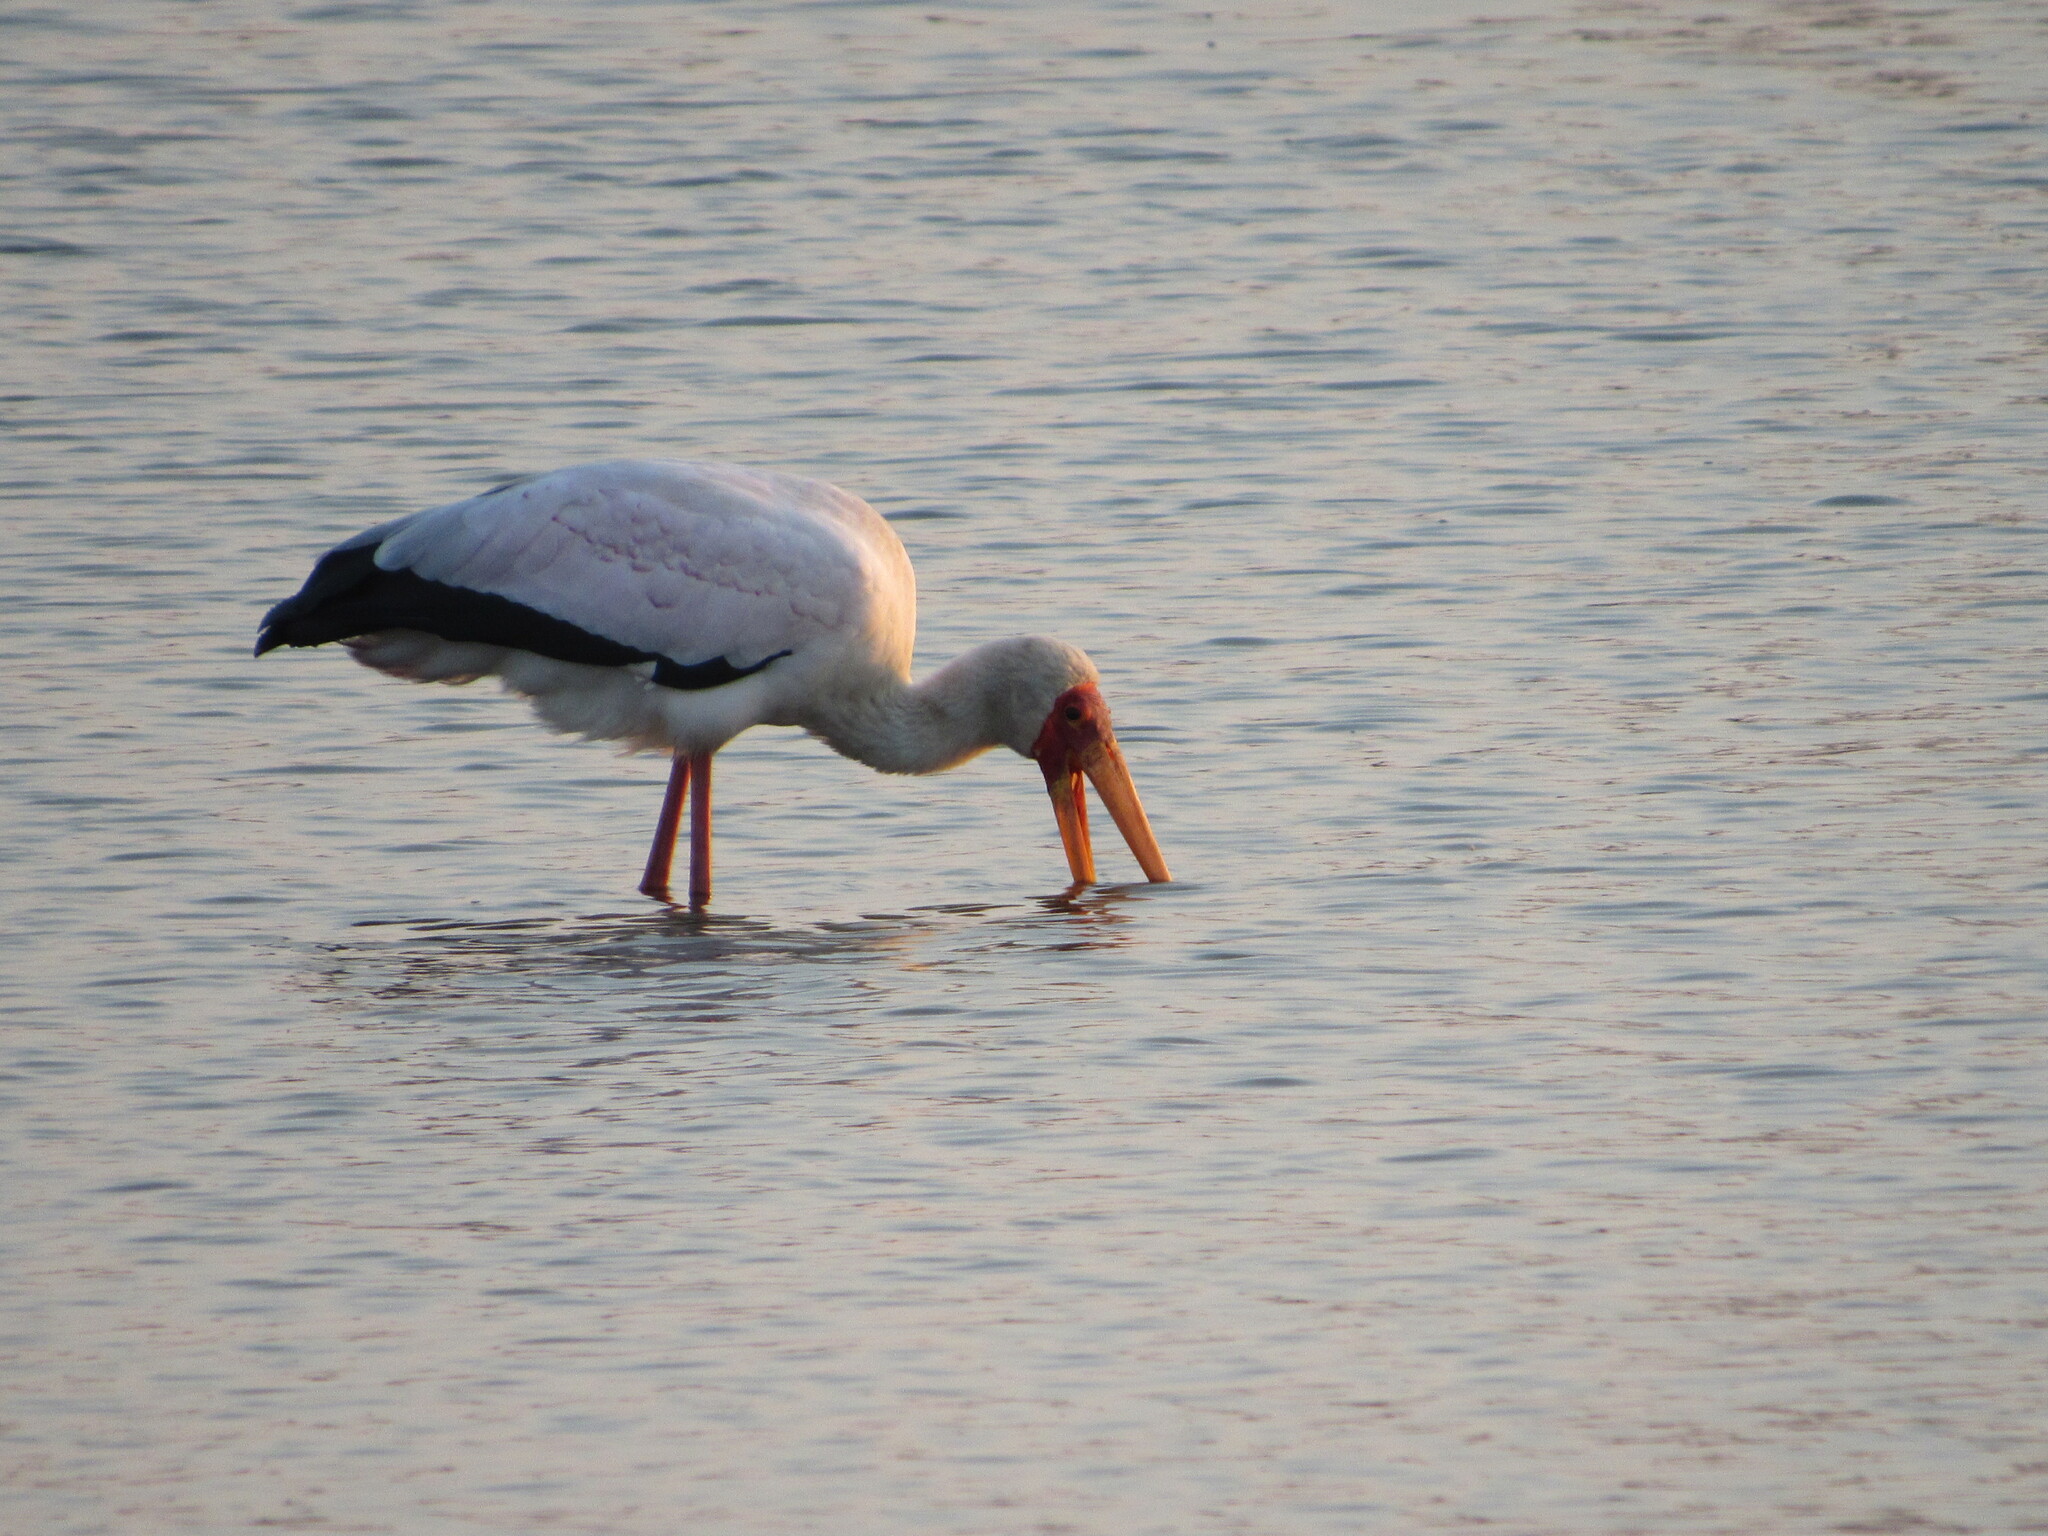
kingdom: Animalia
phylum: Chordata
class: Aves
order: Ciconiiformes
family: Ciconiidae
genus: Mycteria
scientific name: Mycteria ibis
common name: Yellow-billed stork
